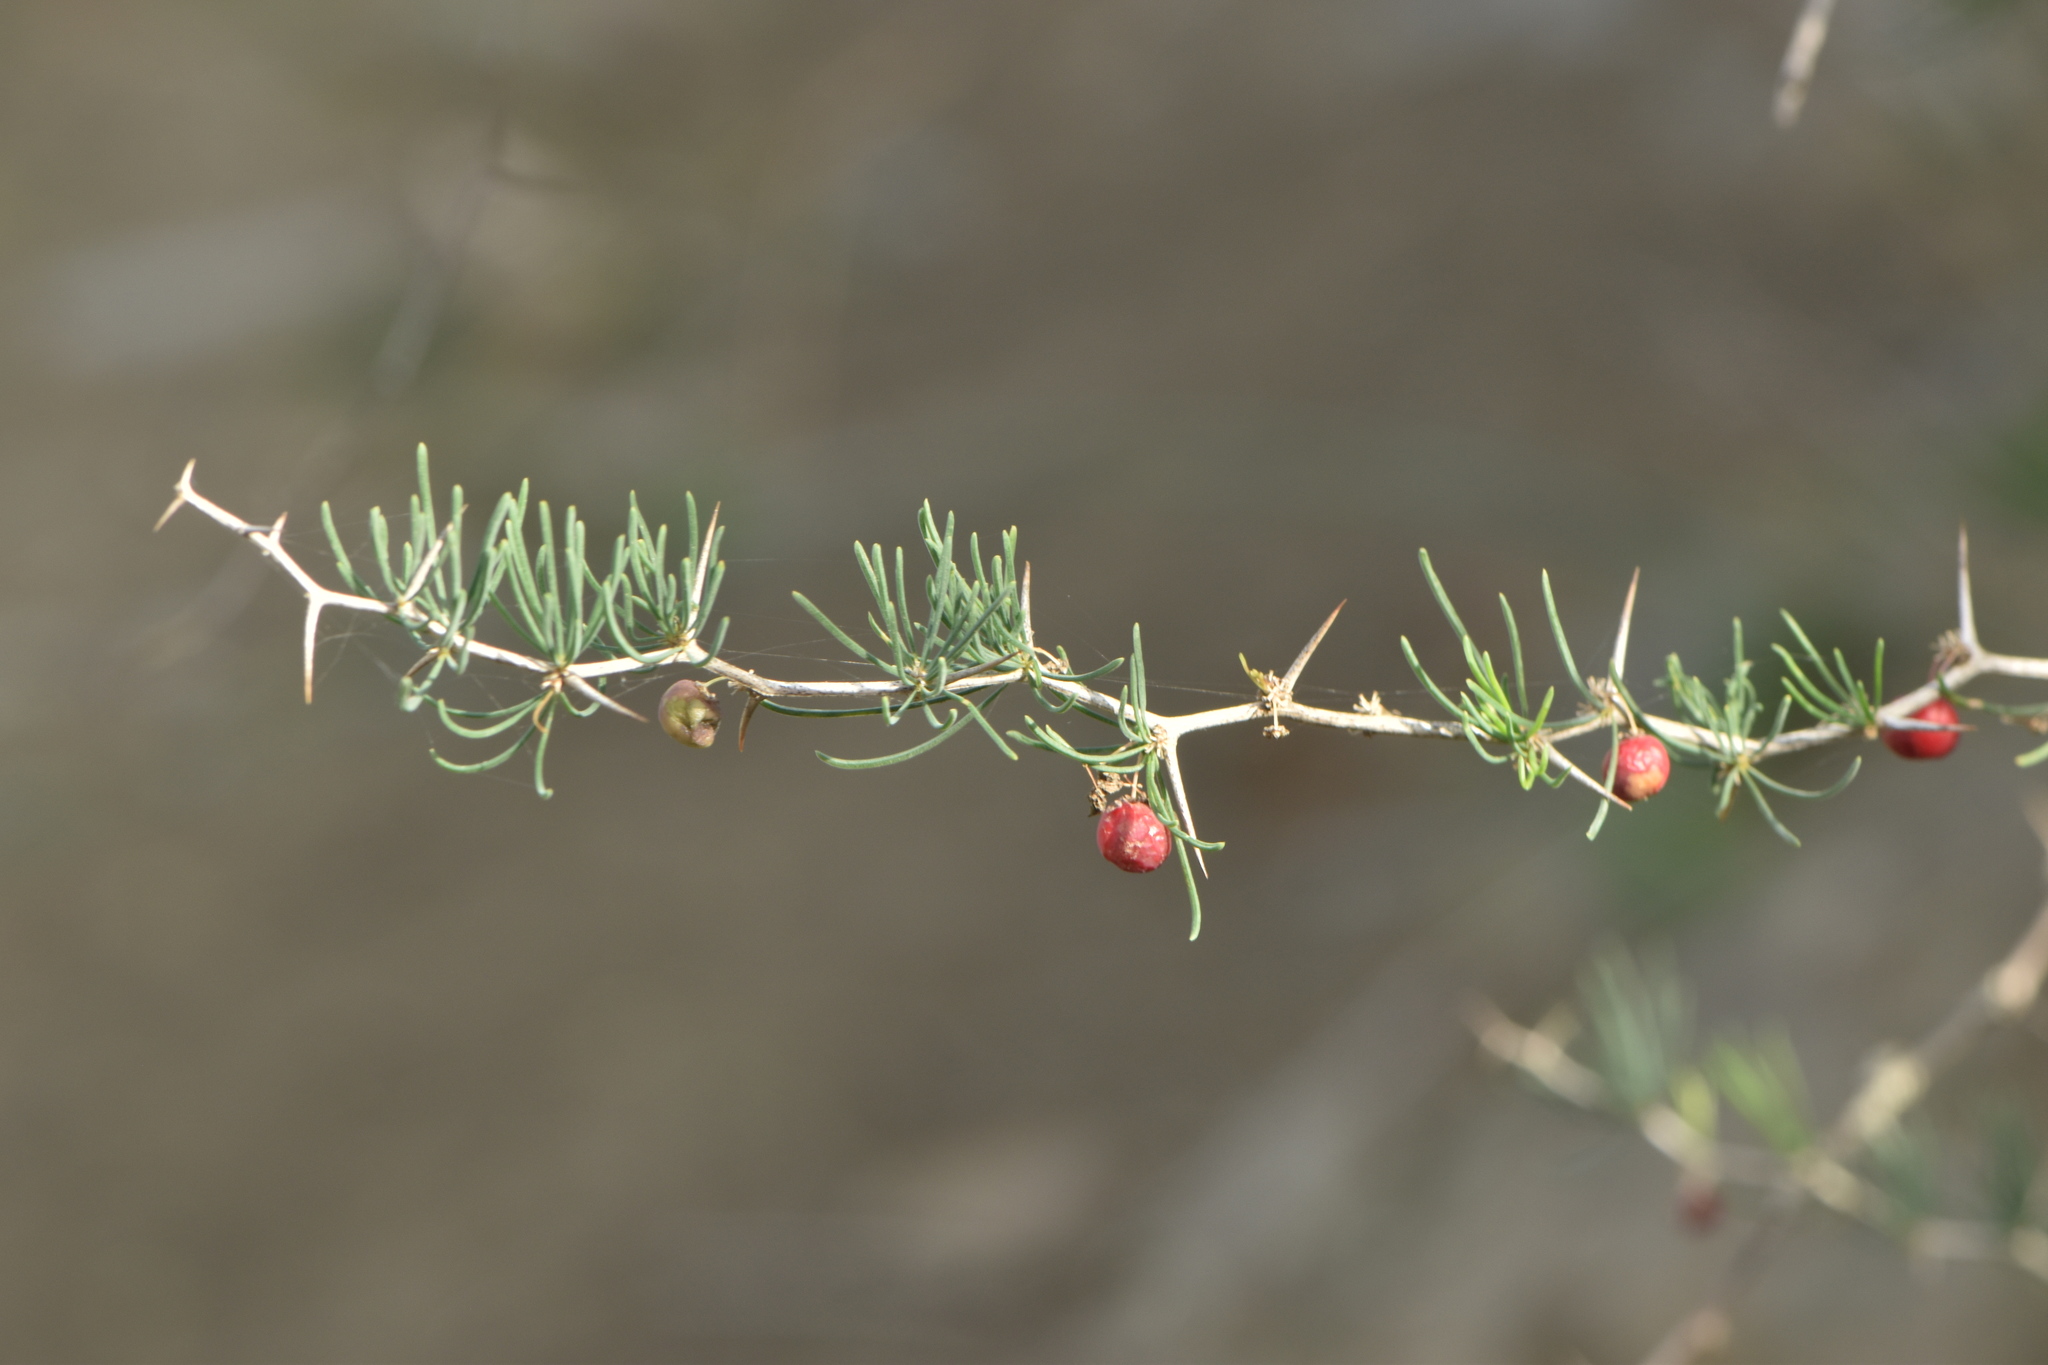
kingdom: Plantae
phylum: Tracheophyta
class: Liliopsida
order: Asparagales
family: Asparagaceae
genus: Asparagus
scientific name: Asparagus albus
